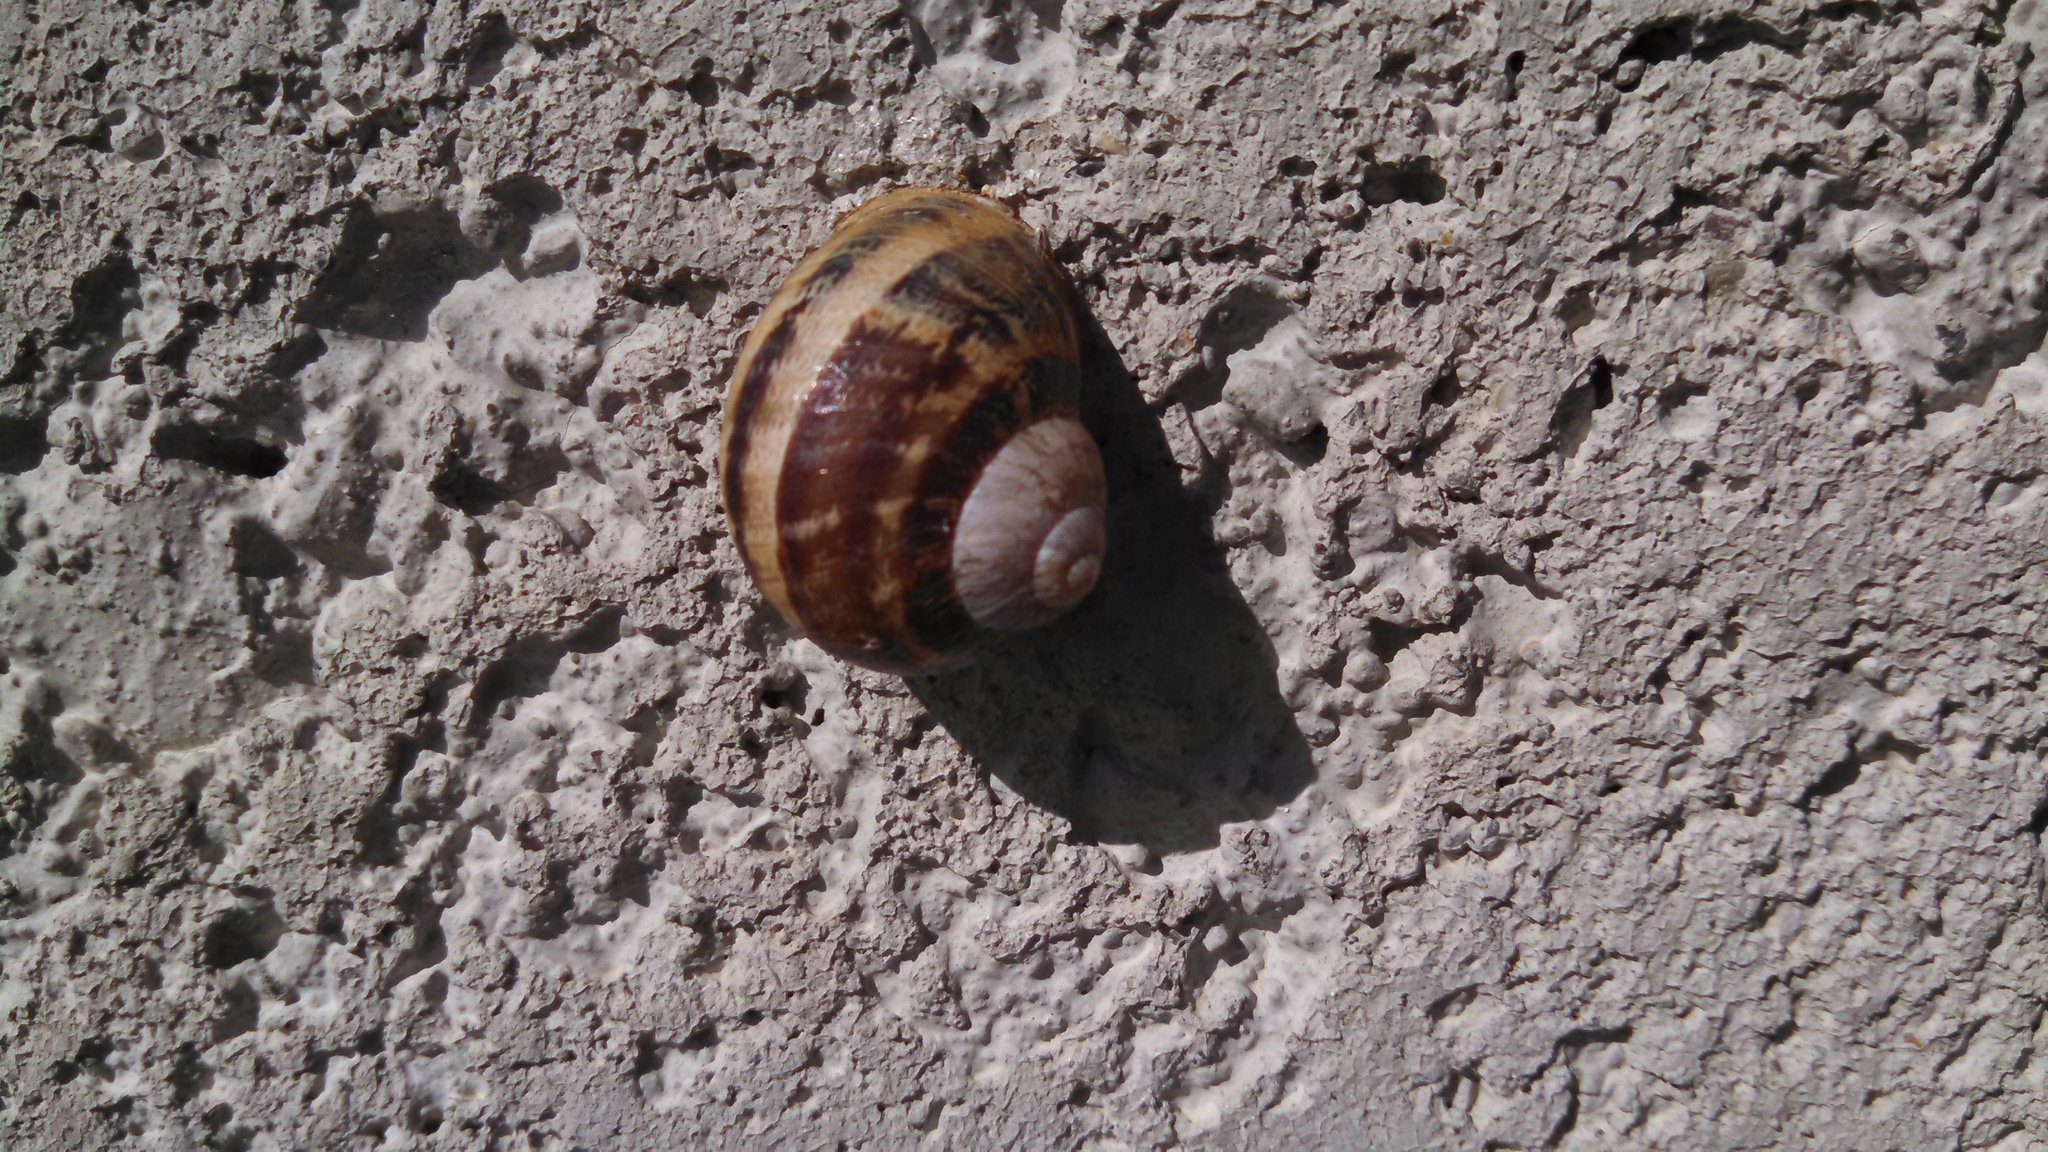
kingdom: Animalia
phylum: Mollusca
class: Gastropoda
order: Stylommatophora
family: Helicidae
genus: Cornu
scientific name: Cornu aspersum
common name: Brown garden snail
